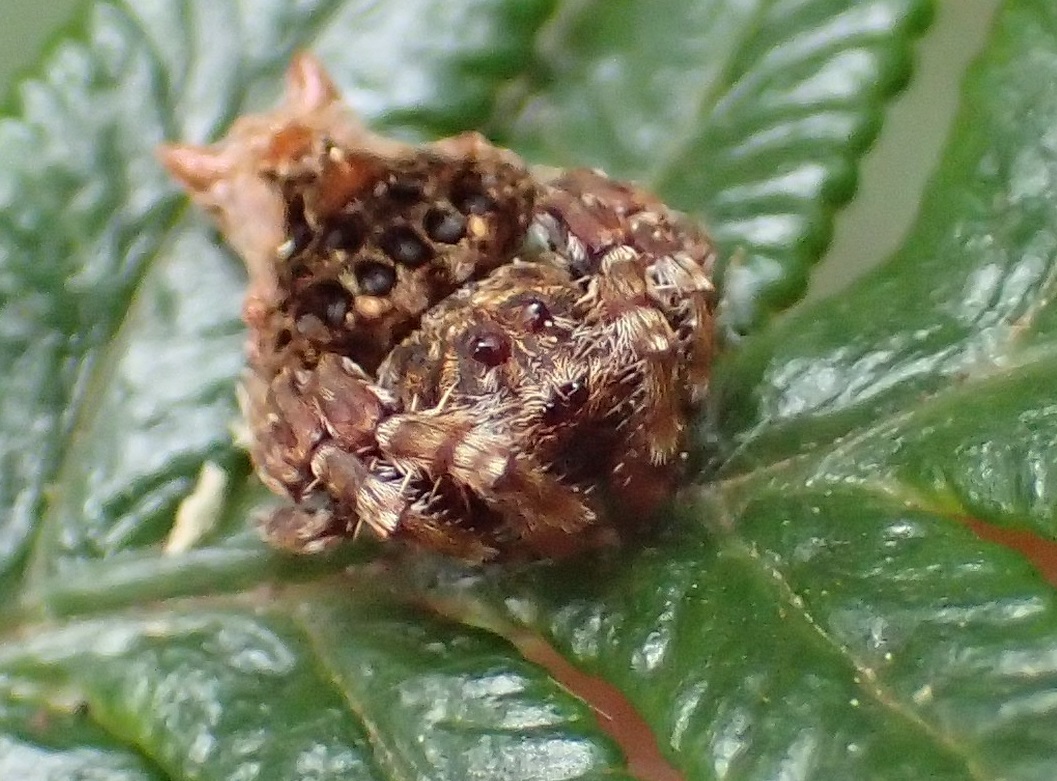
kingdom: Animalia
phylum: Arthropoda
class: Arachnida
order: Araneae
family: Arkyidae
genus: Arkys
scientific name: Arkys alticephala
